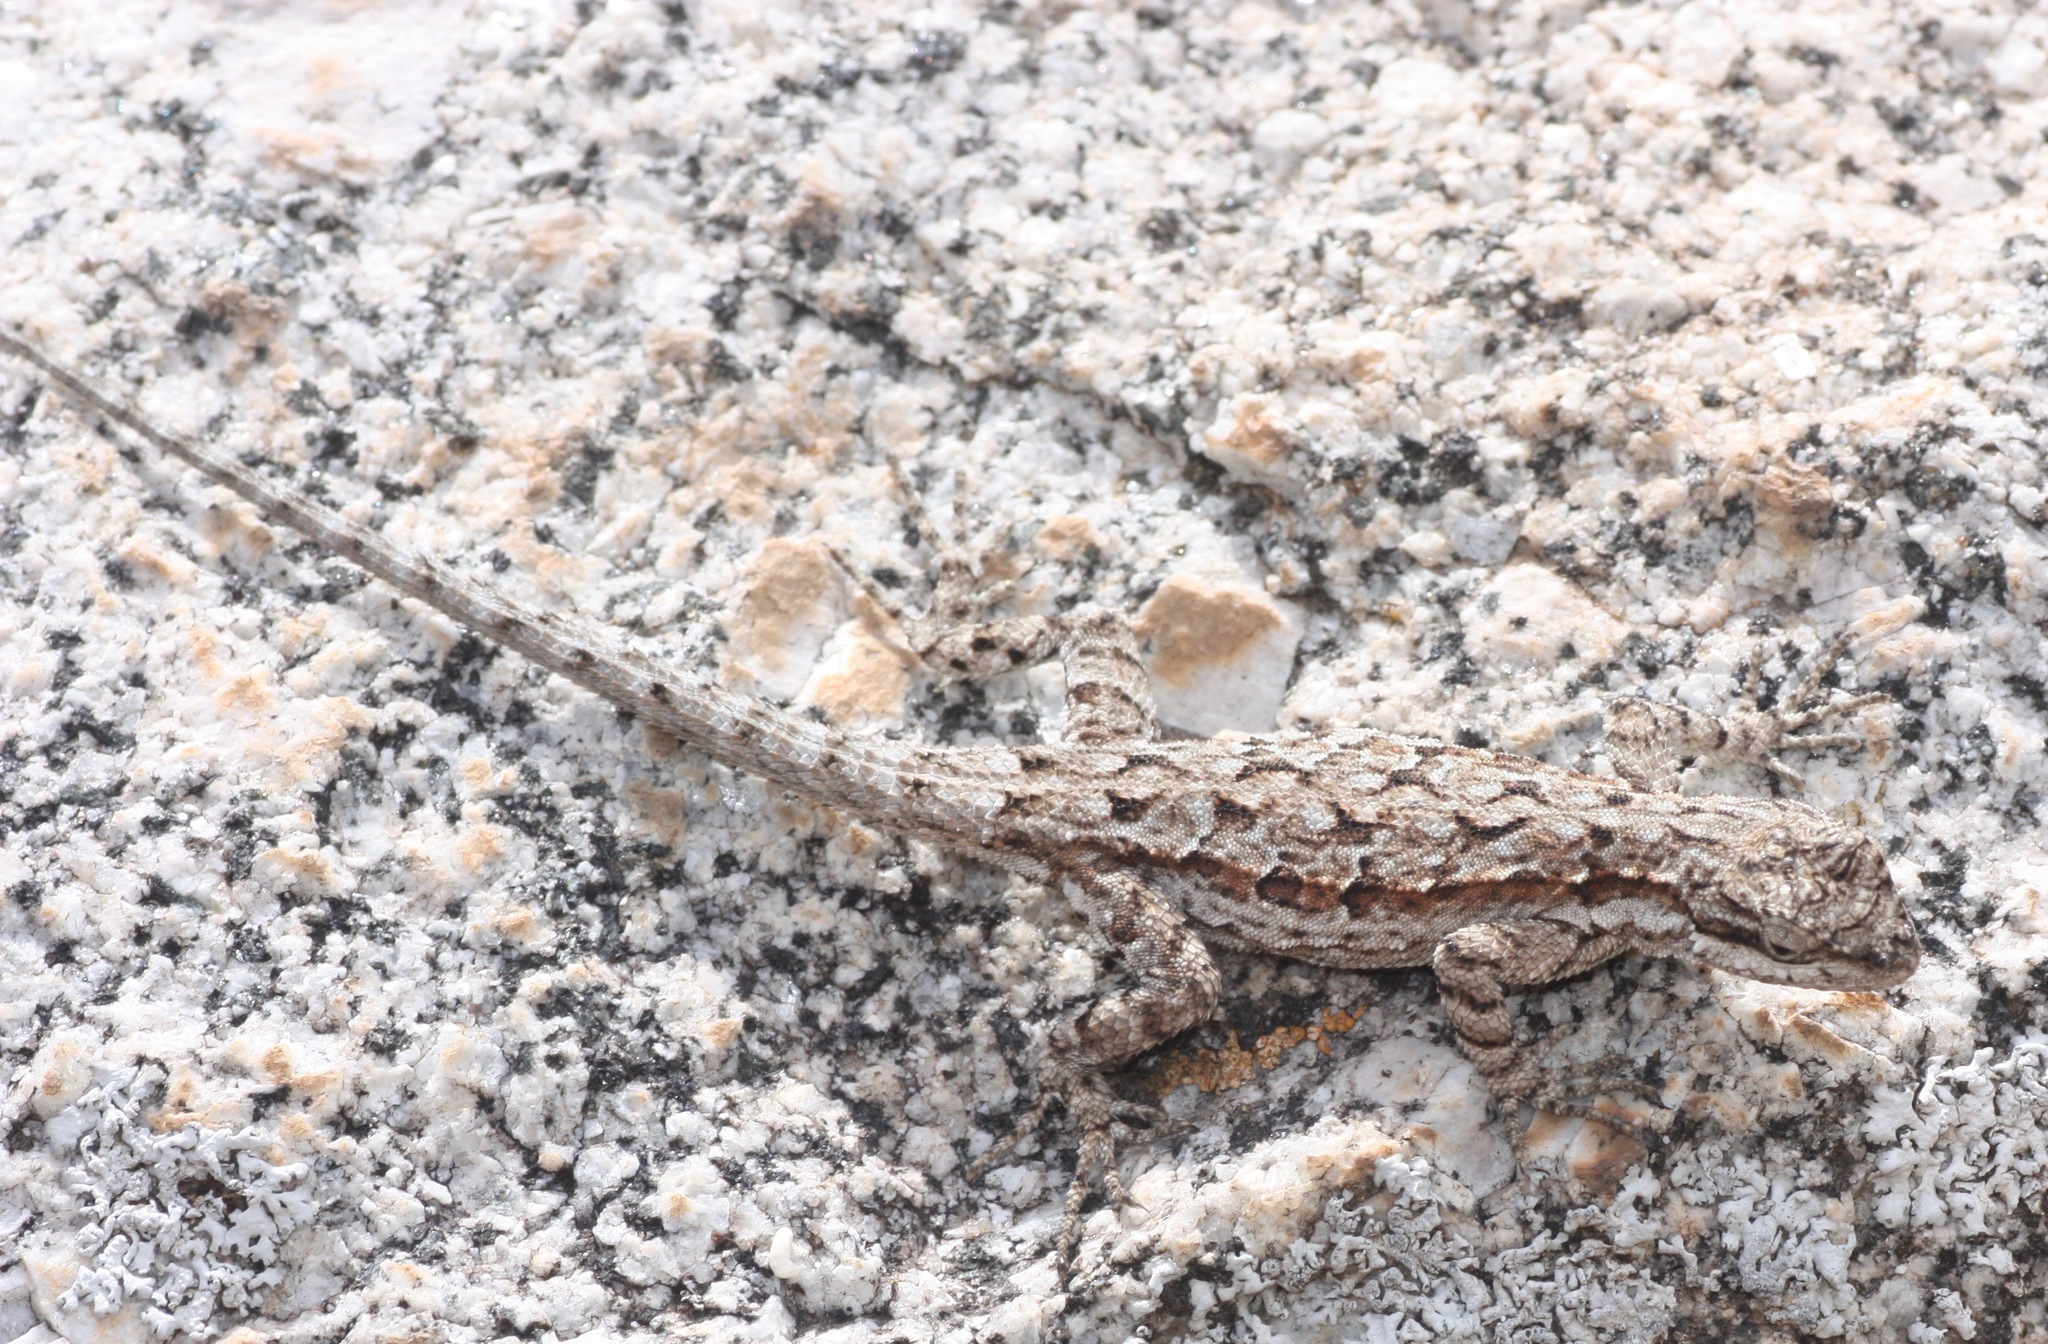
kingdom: Animalia
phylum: Chordata
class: Squamata
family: Phrynosomatidae
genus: Urosaurus
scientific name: Urosaurus ornatus
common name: Ornate tree lizard
